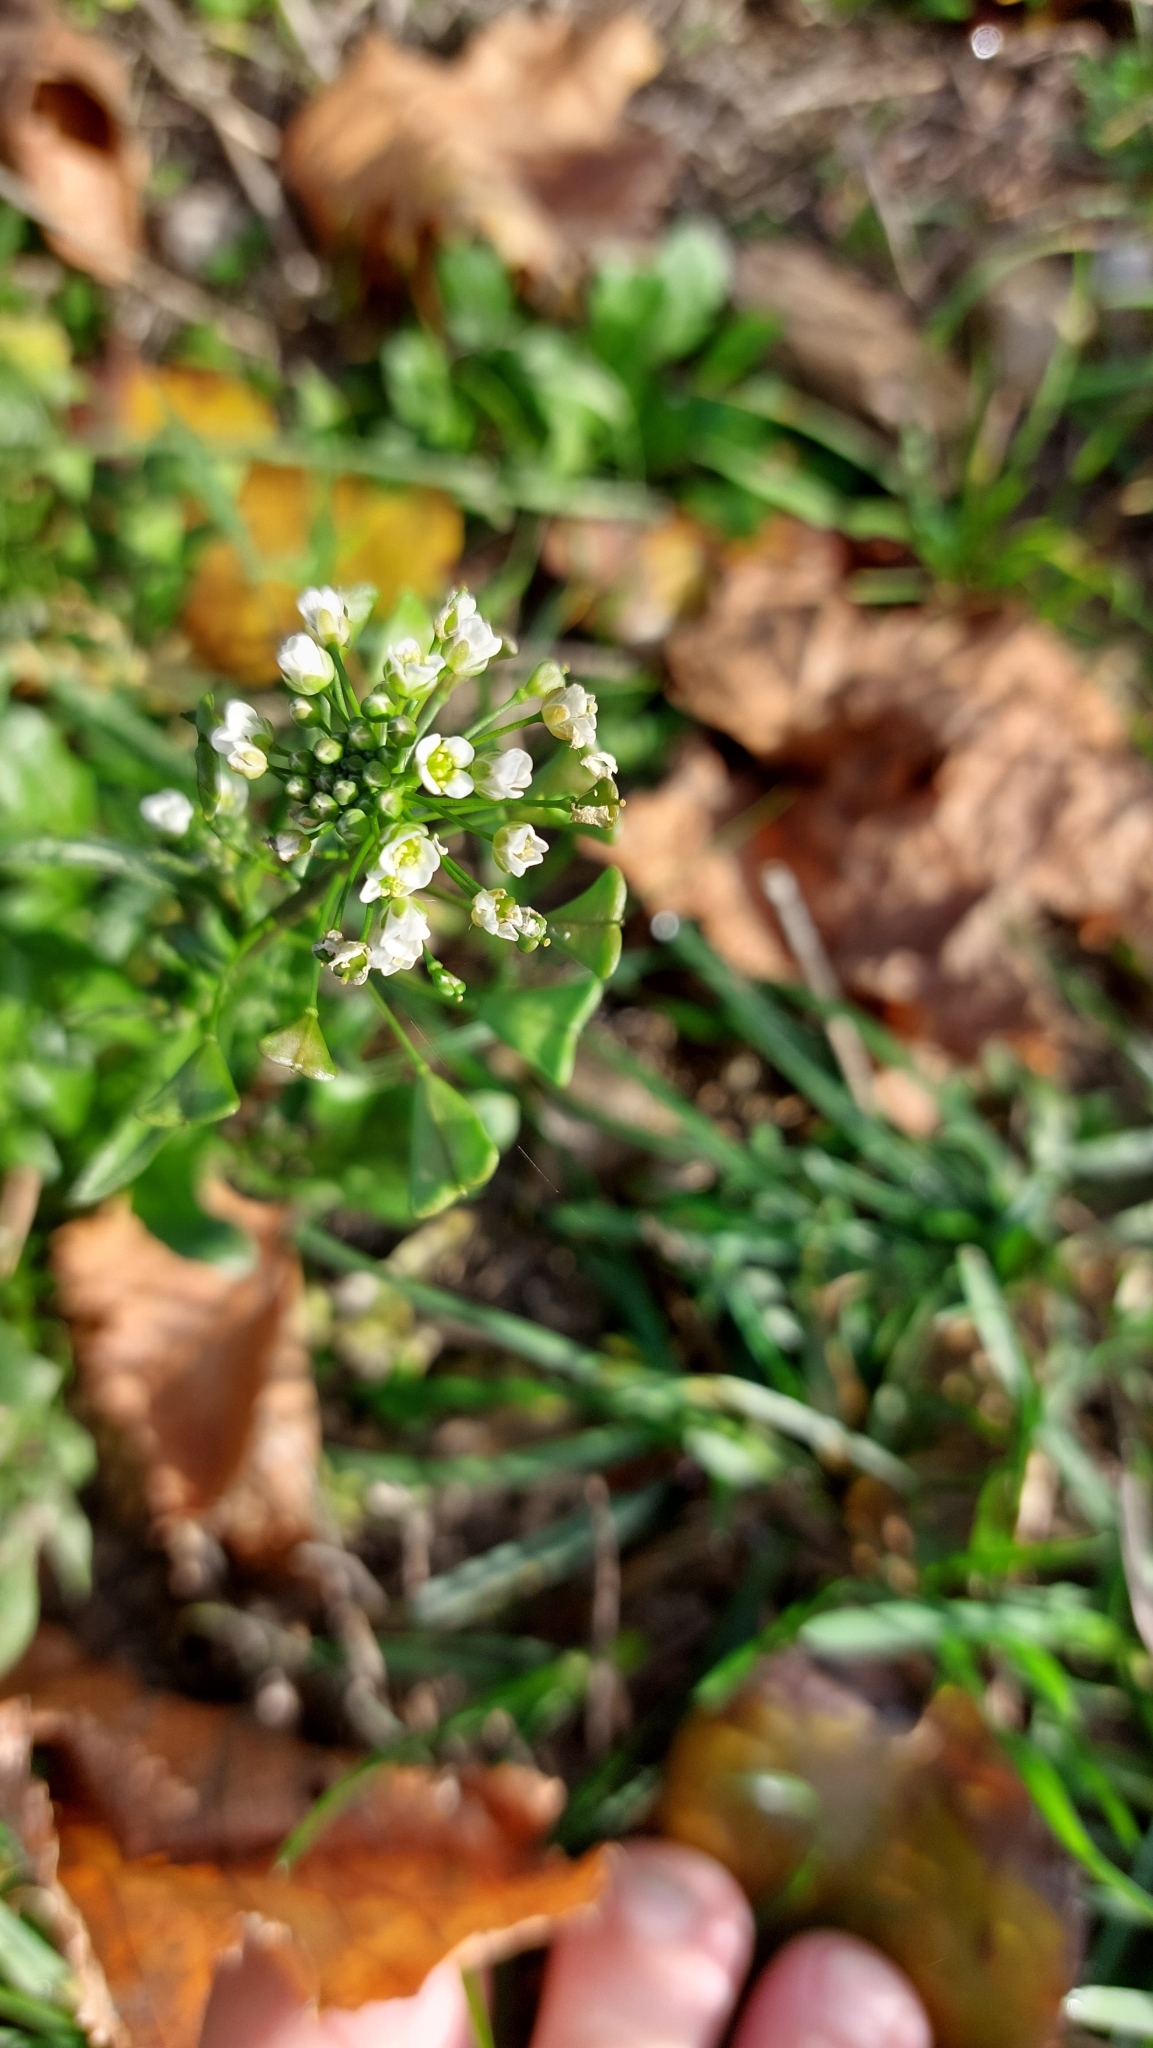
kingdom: Plantae
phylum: Tracheophyta
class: Magnoliopsida
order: Brassicales
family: Brassicaceae
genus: Capsella
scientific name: Capsella bursa-pastoris
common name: Shepherd's purse
